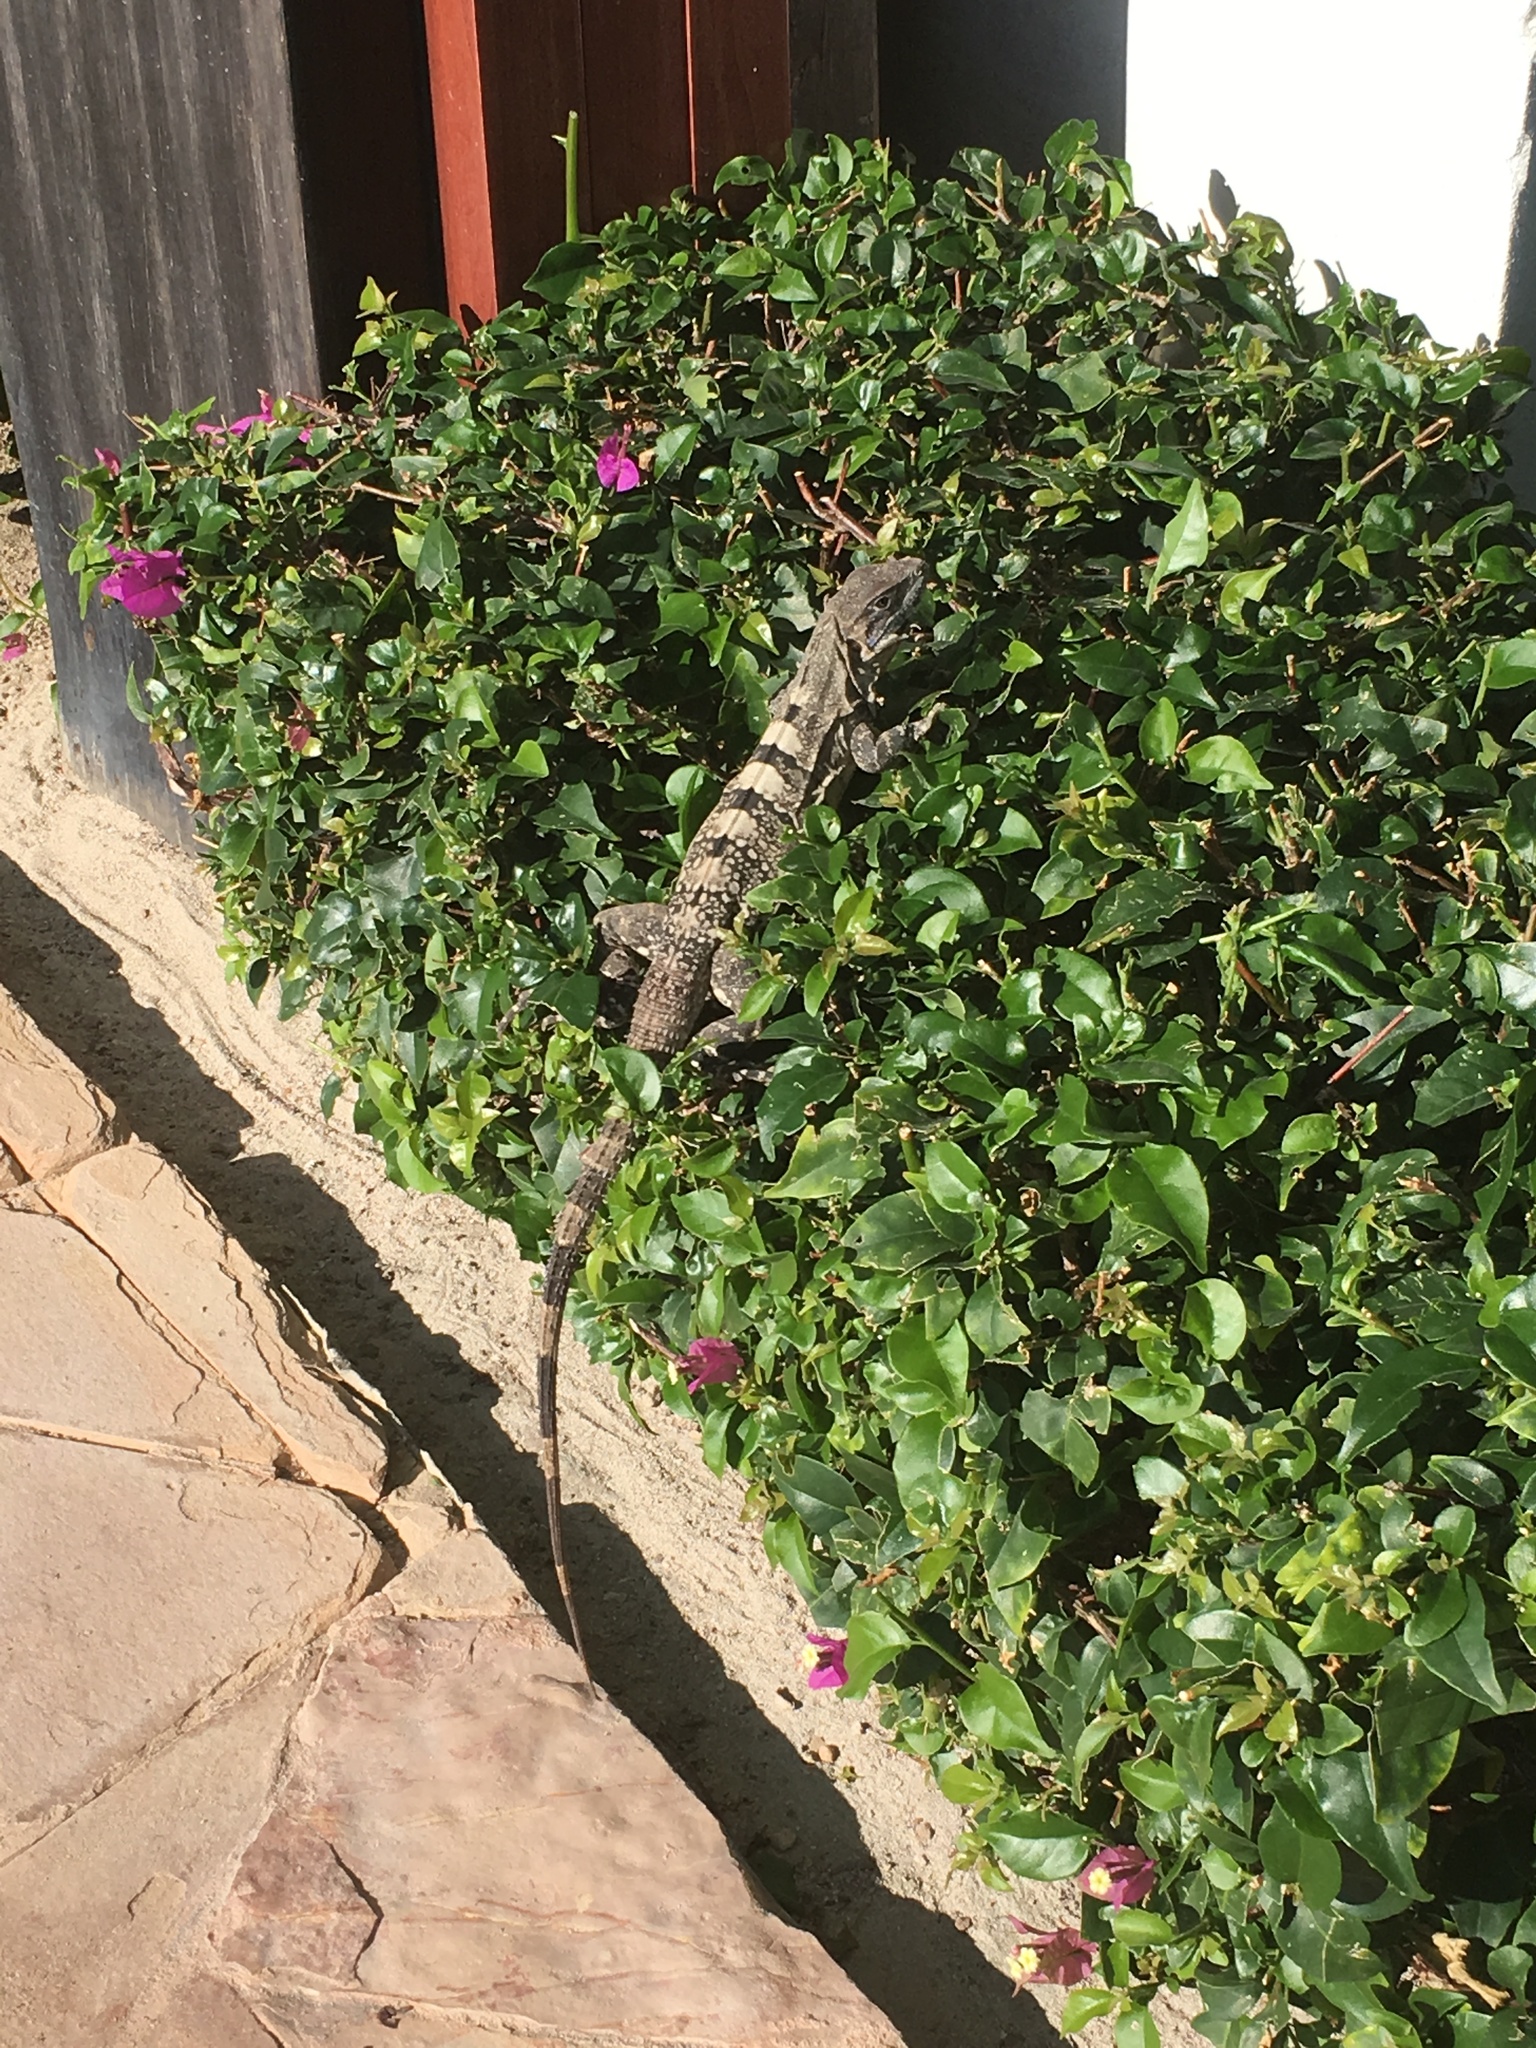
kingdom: Animalia
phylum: Chordata
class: Squamata
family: Iguanidae
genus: Ctenosaura
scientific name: Ctenosaura similis
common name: Black spiny-tailed iguana
